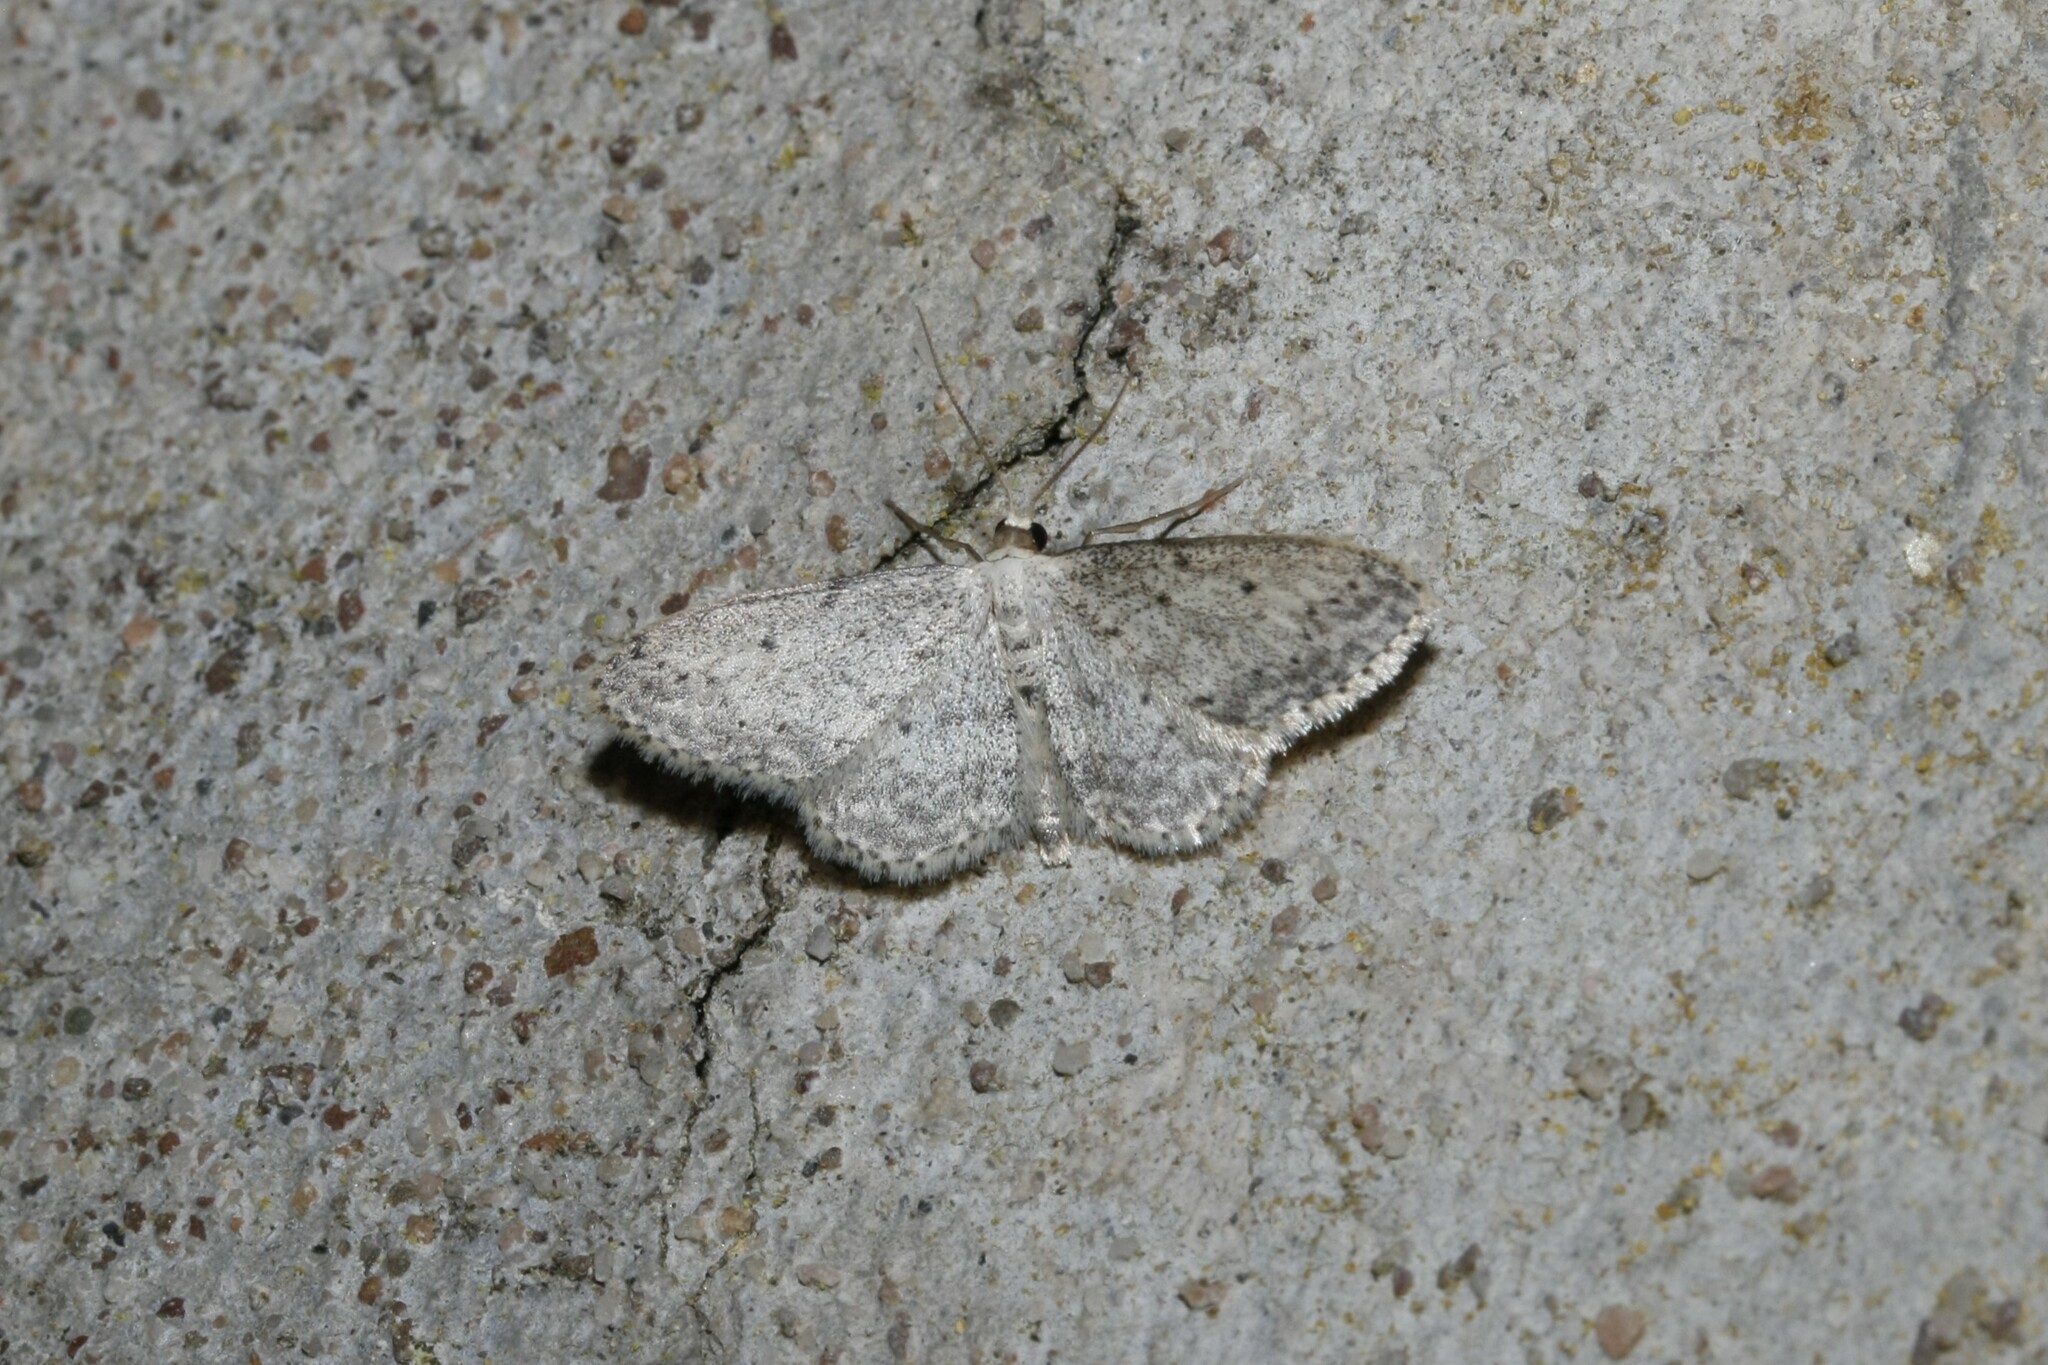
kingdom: Animalia
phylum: Arthropoda
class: Insecta
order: Lepidoptera
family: Geometridae
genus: Idaea
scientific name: Idaea seriata
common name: Small dusty wave
